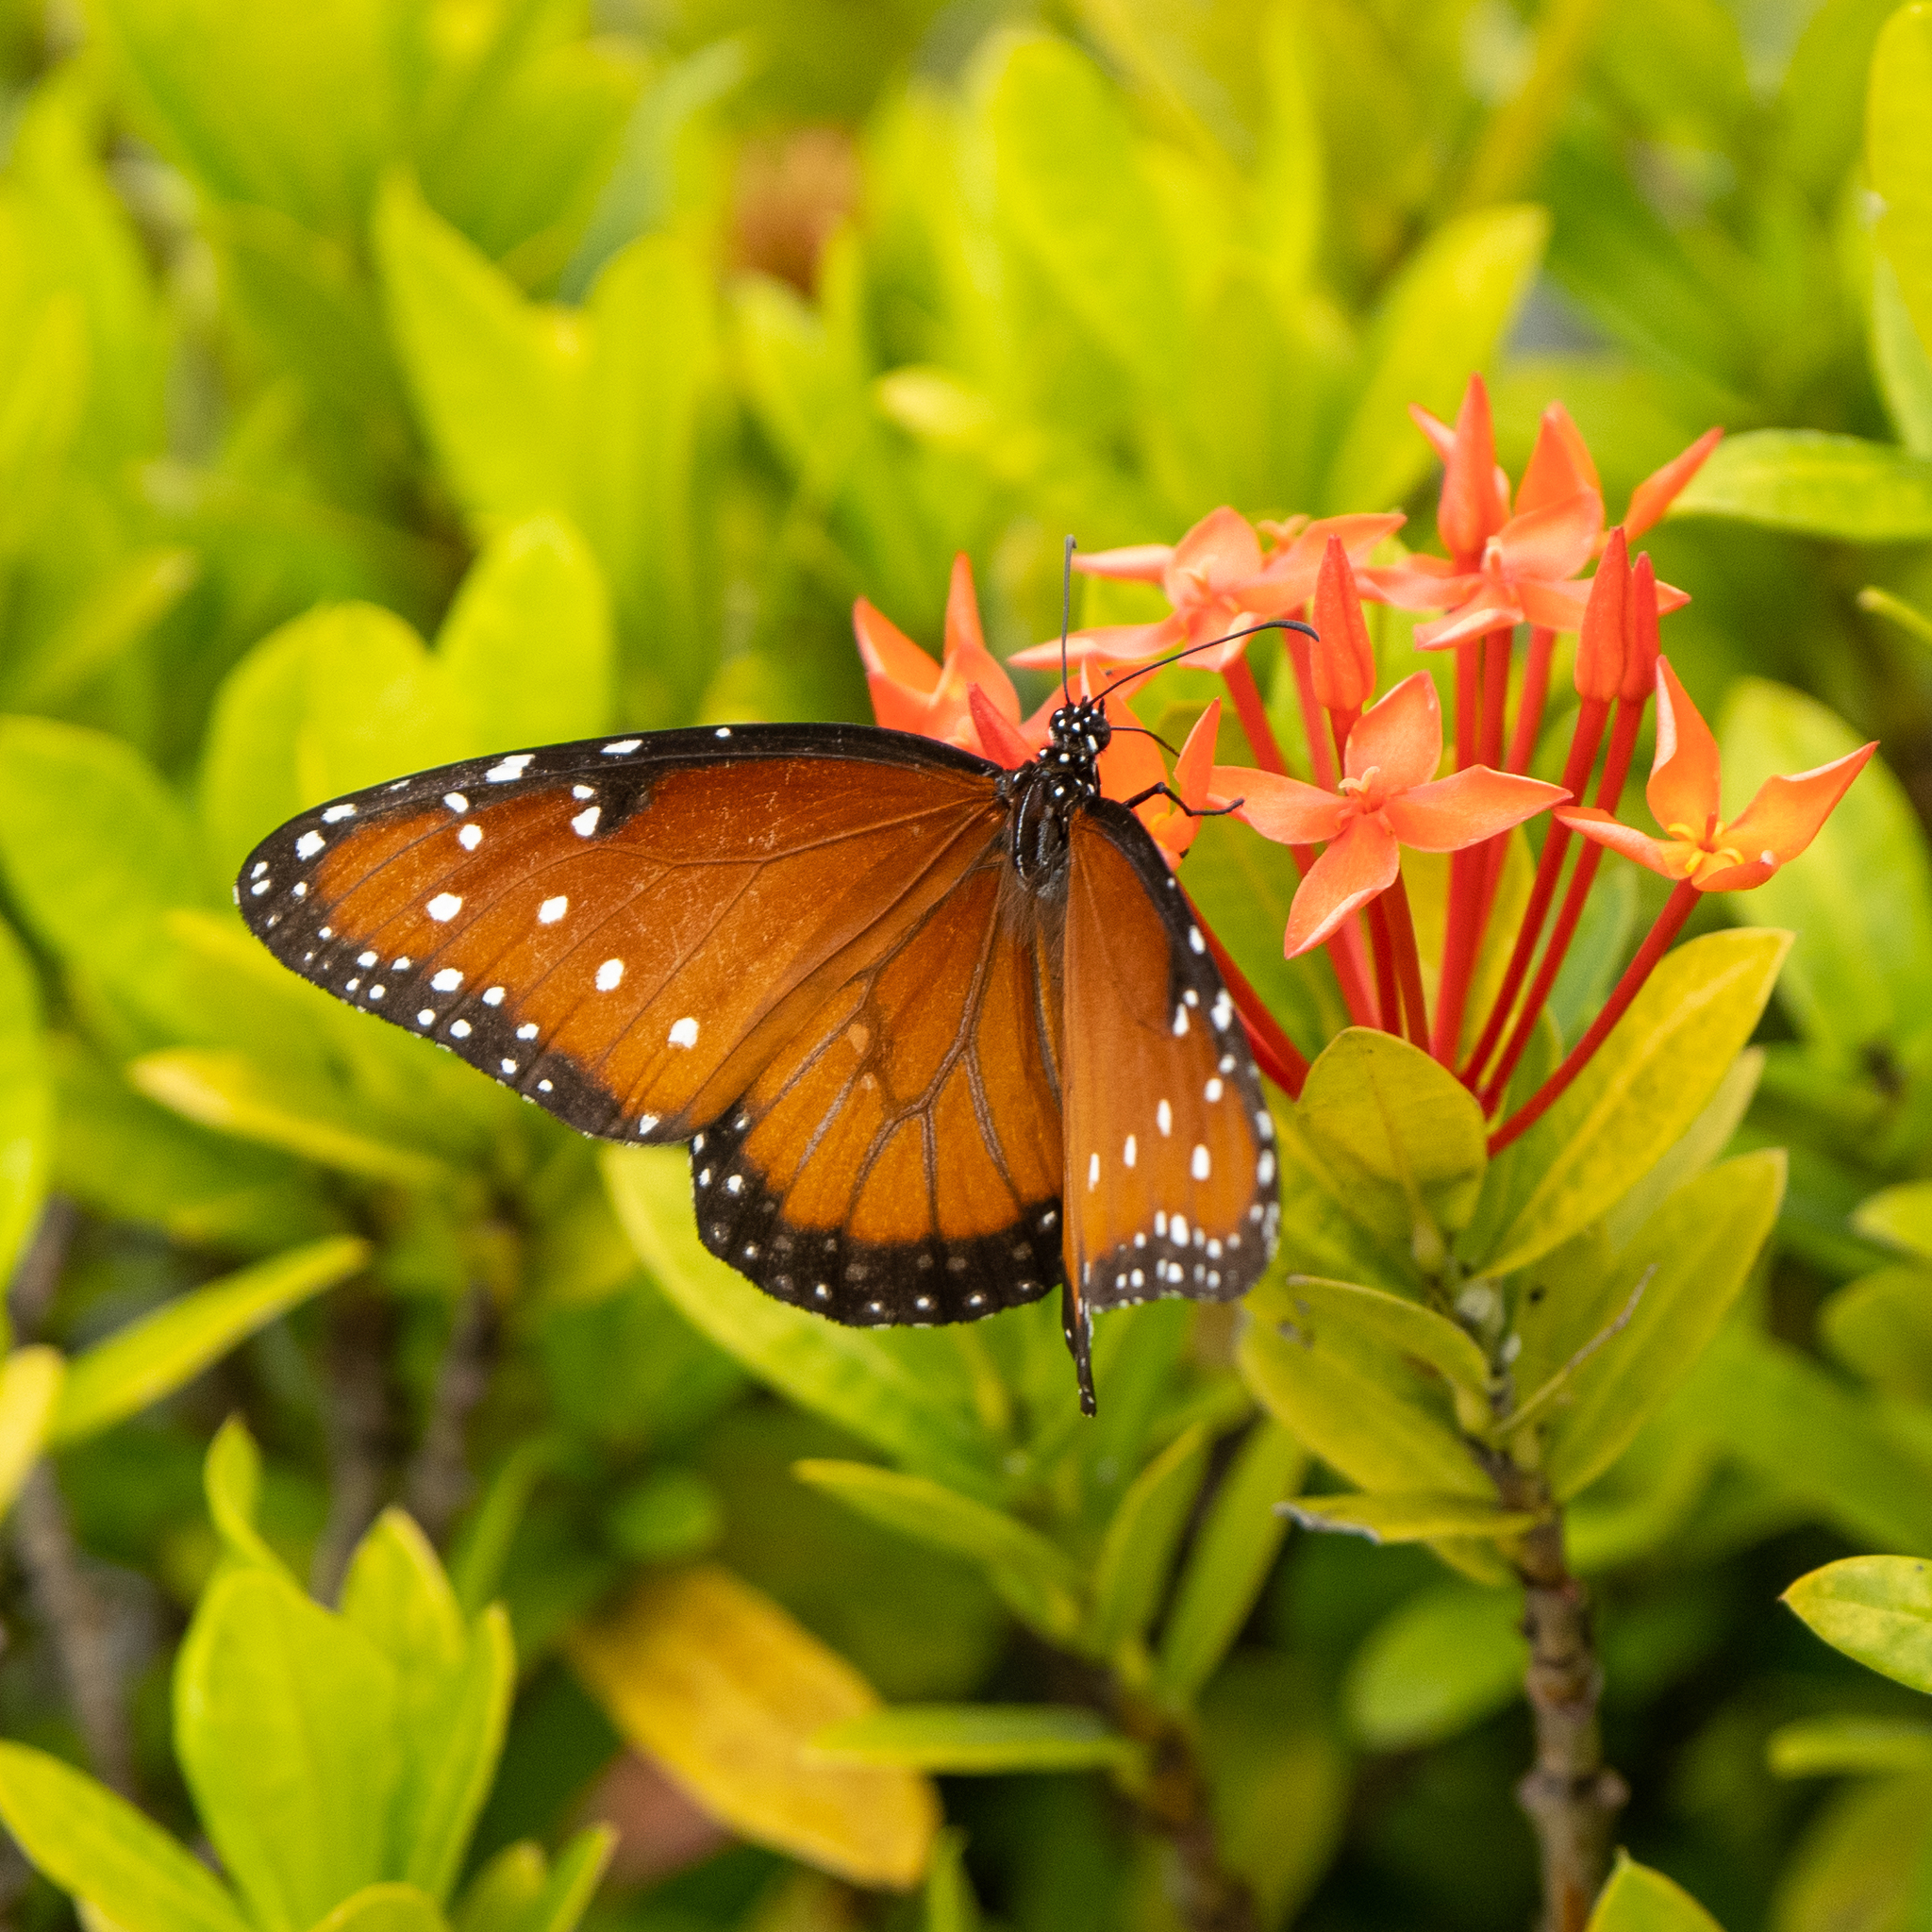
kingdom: Animalia
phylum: Arthropoda
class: Insecta
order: Lepidoptera
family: Nymphalidae
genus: Danaus
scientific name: Danaus gilippus
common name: Queen
